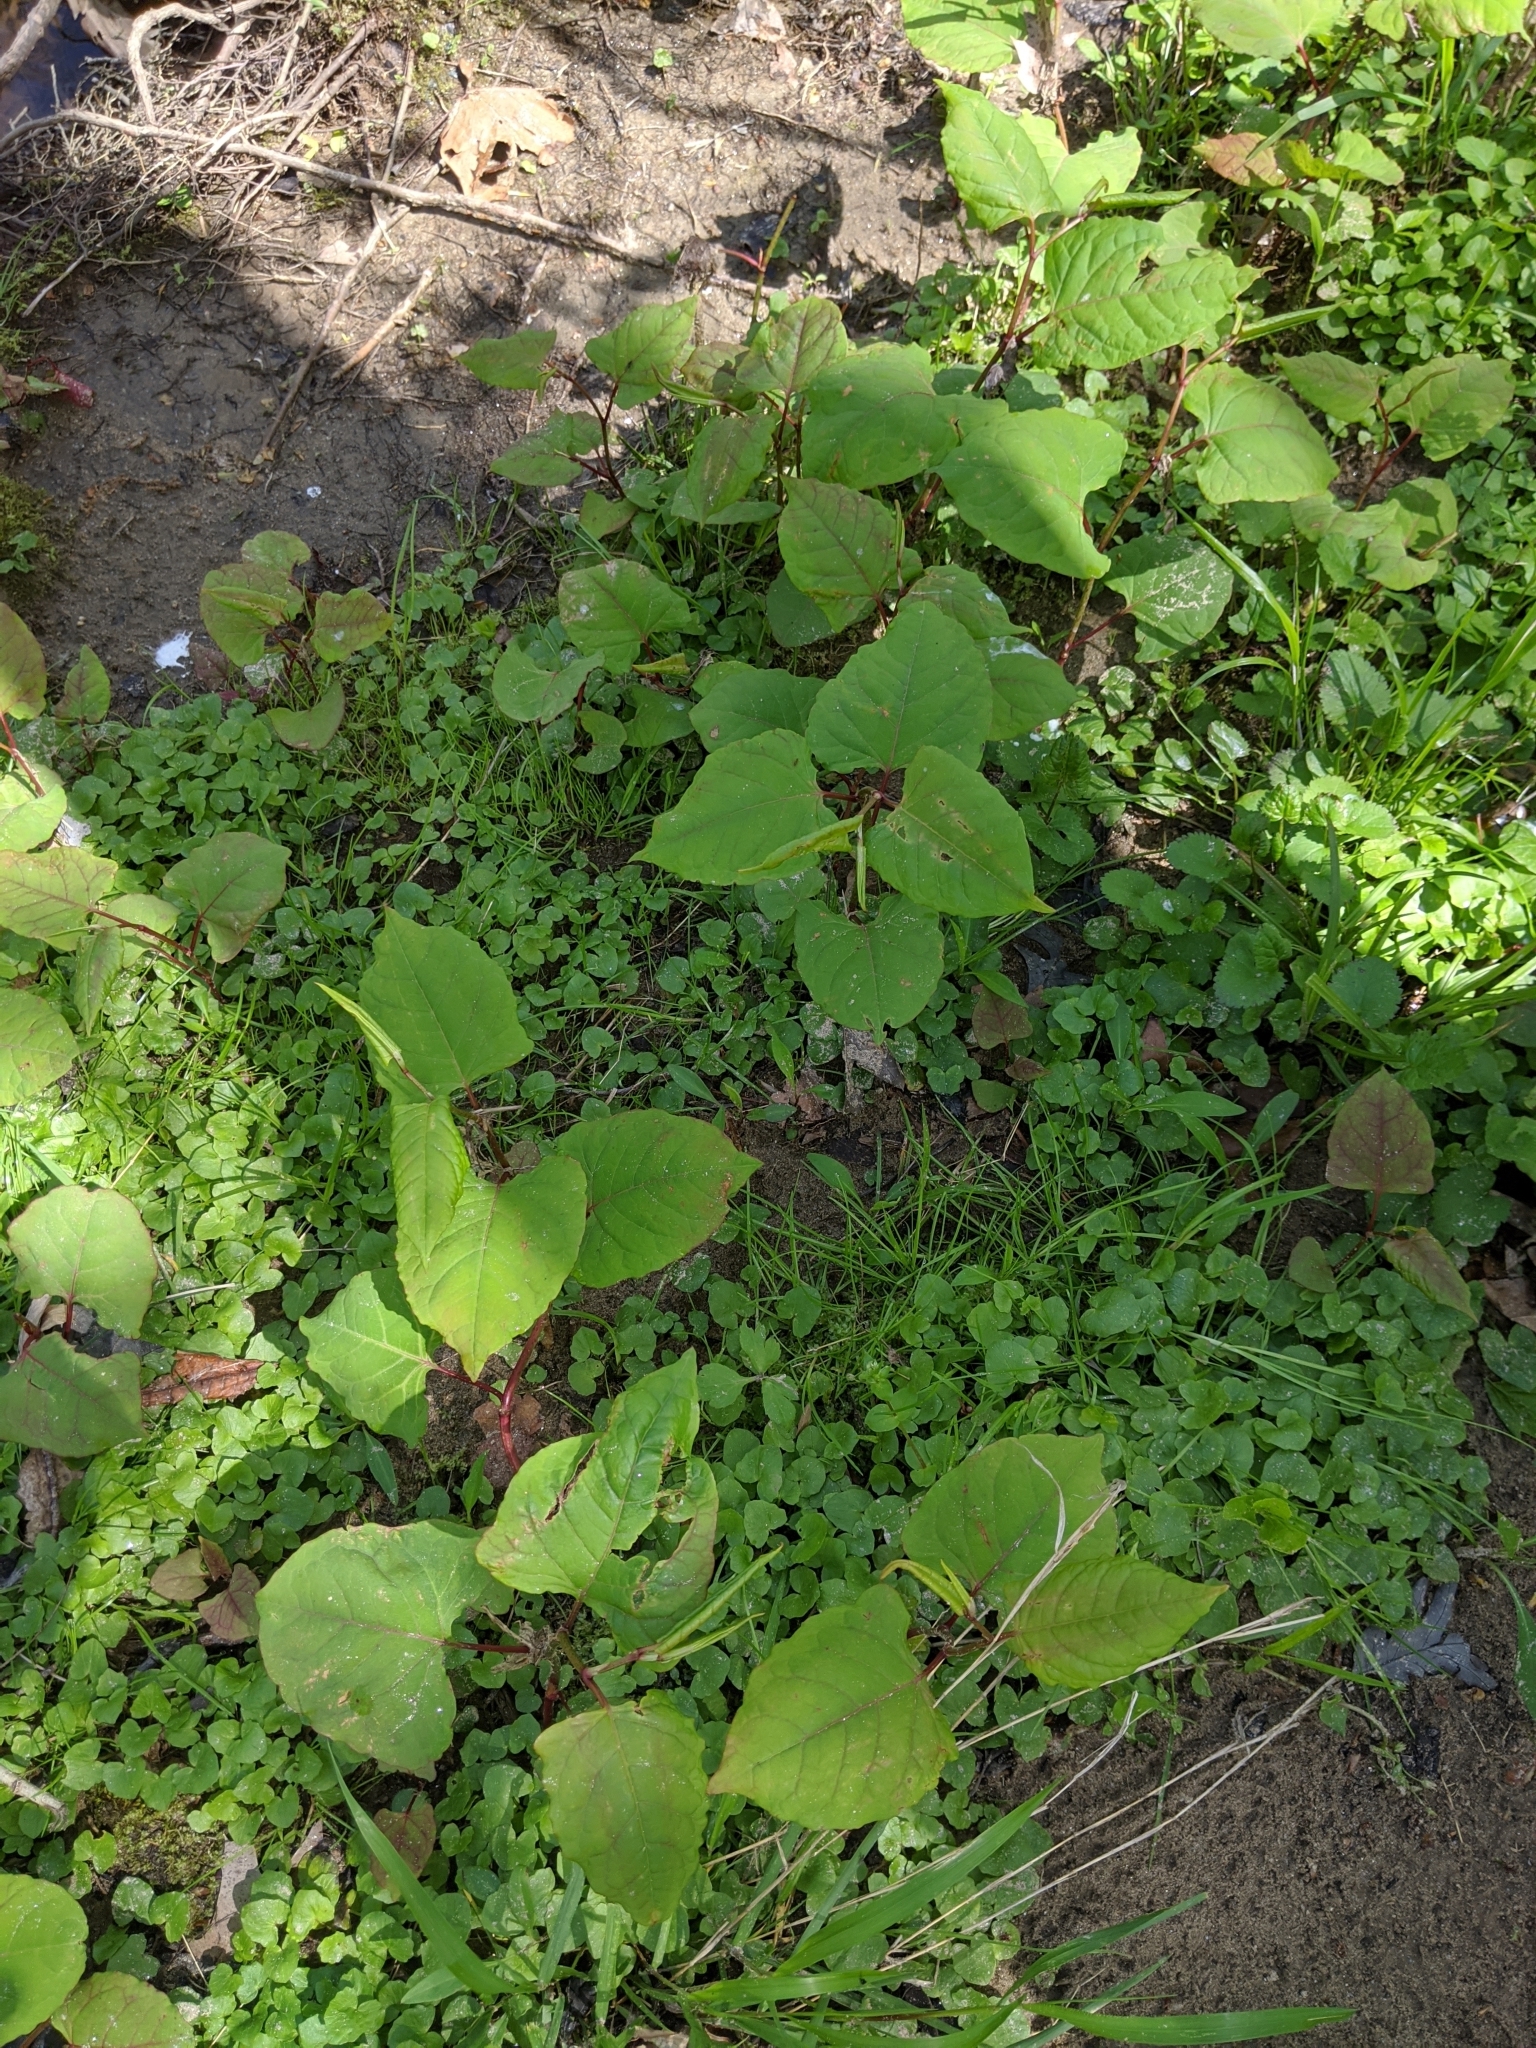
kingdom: Plantae
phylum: Tracheophyta
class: Magnoliopsida
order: Caryophyllales
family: Polygonaceae
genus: Reynoutria
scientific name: Reynoutria japonica
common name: Japanese knotweed
